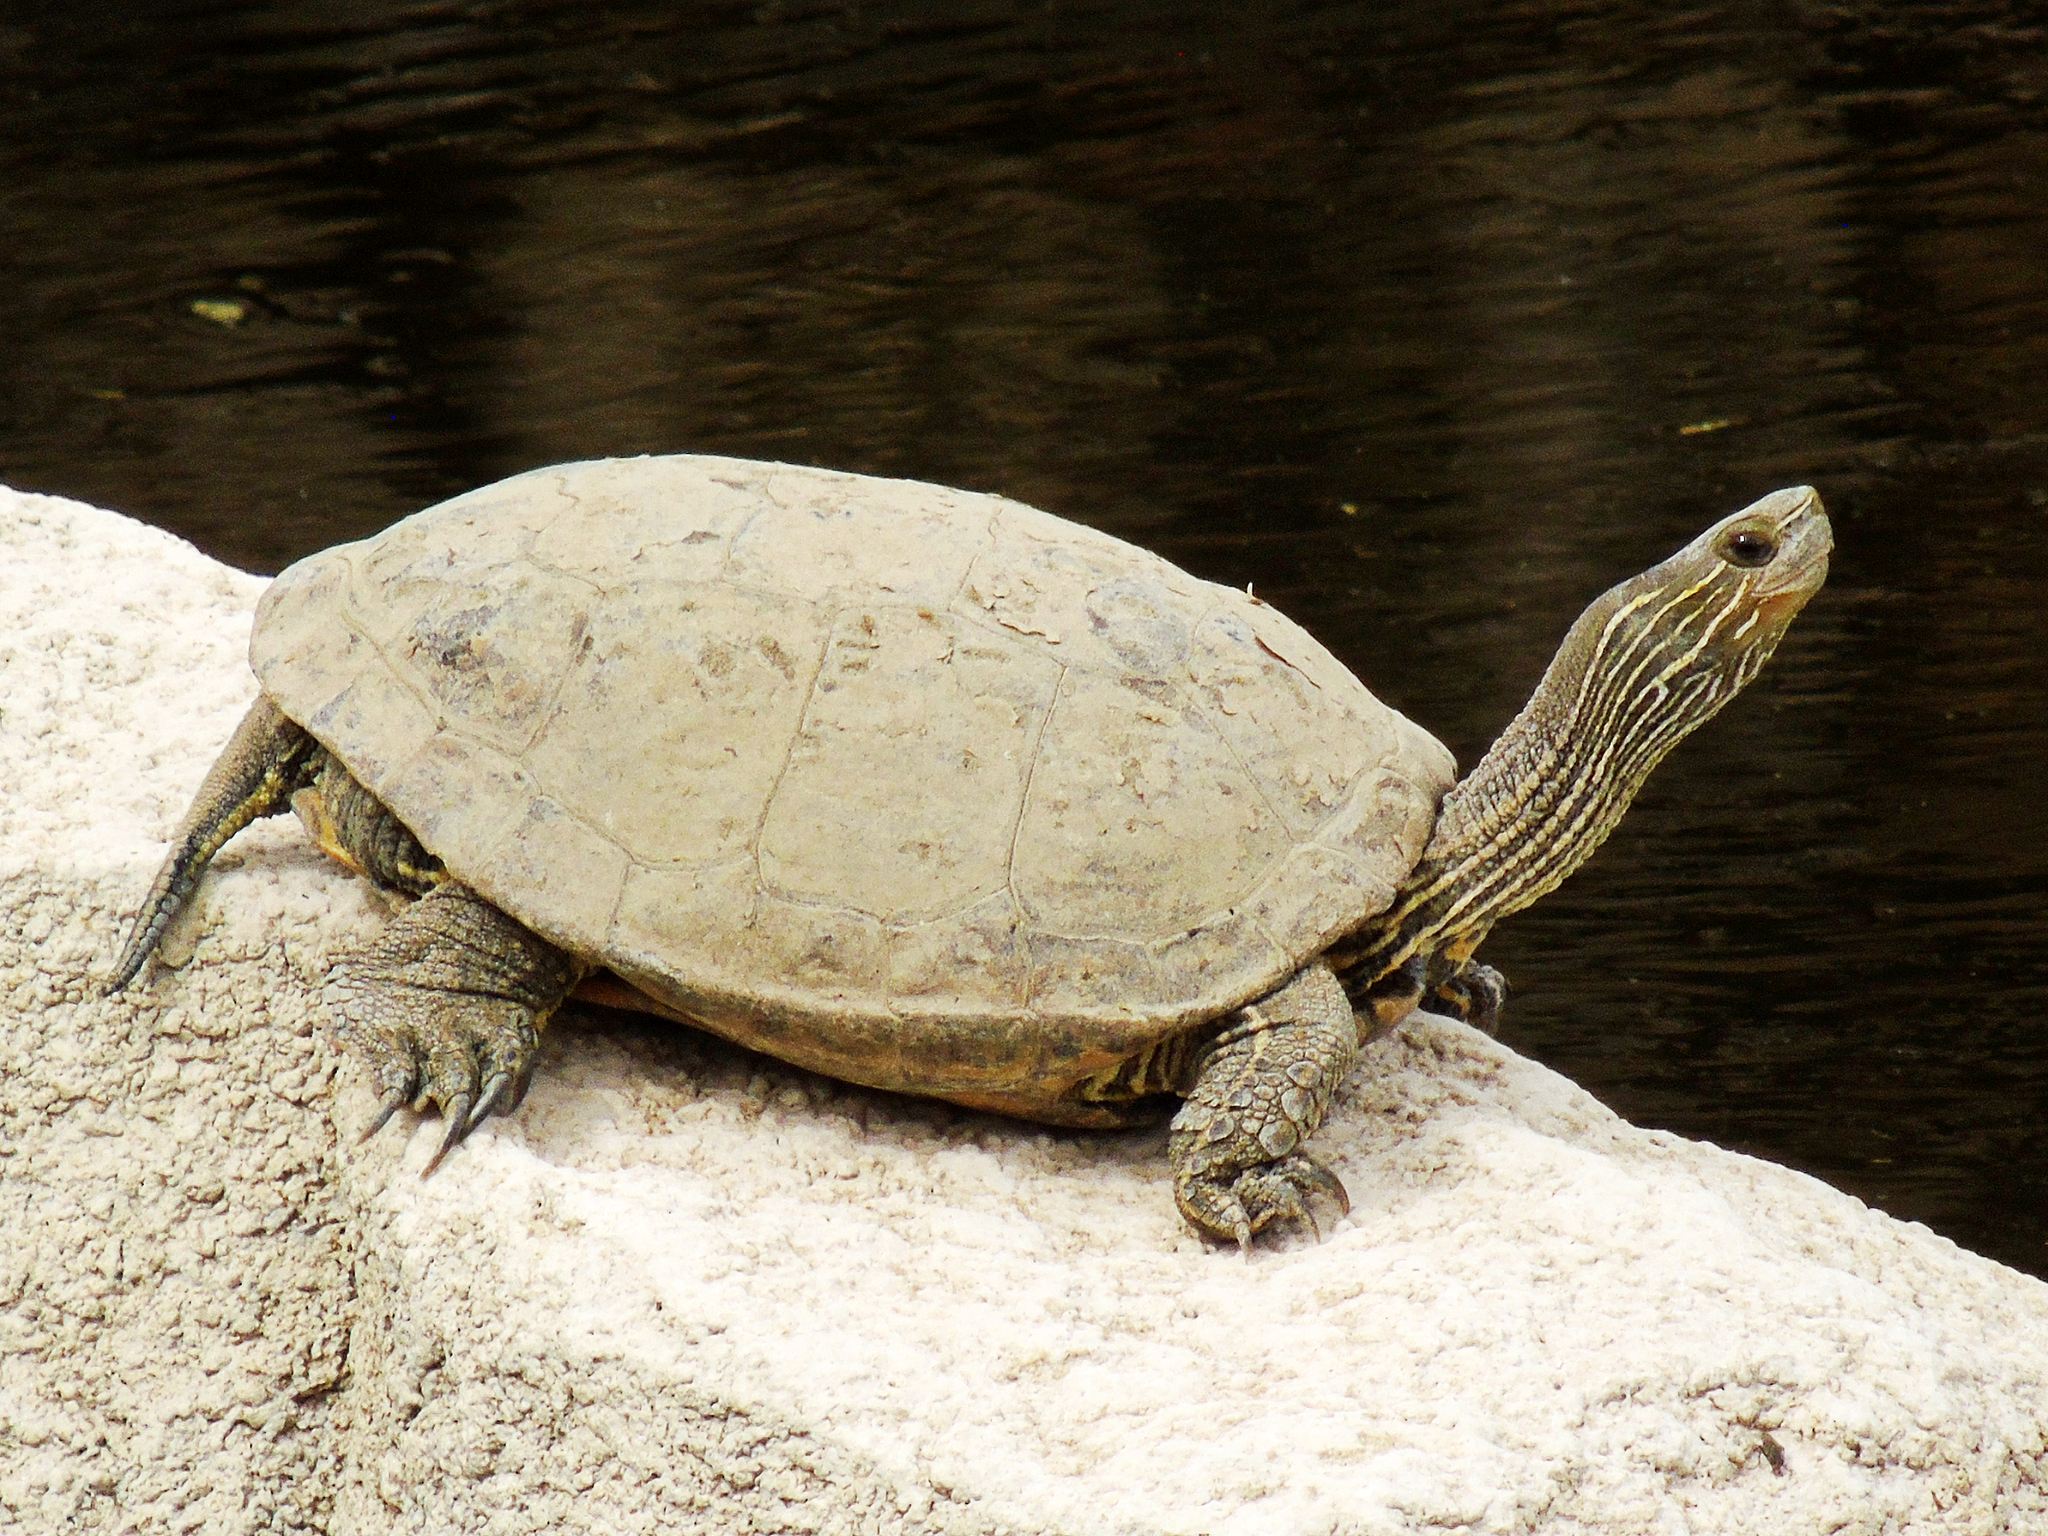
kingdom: Animalia
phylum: Chordata
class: Testudines
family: Geoemydidae
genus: Mauremys
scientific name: Mauremys caspica
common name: Caspian turtle
